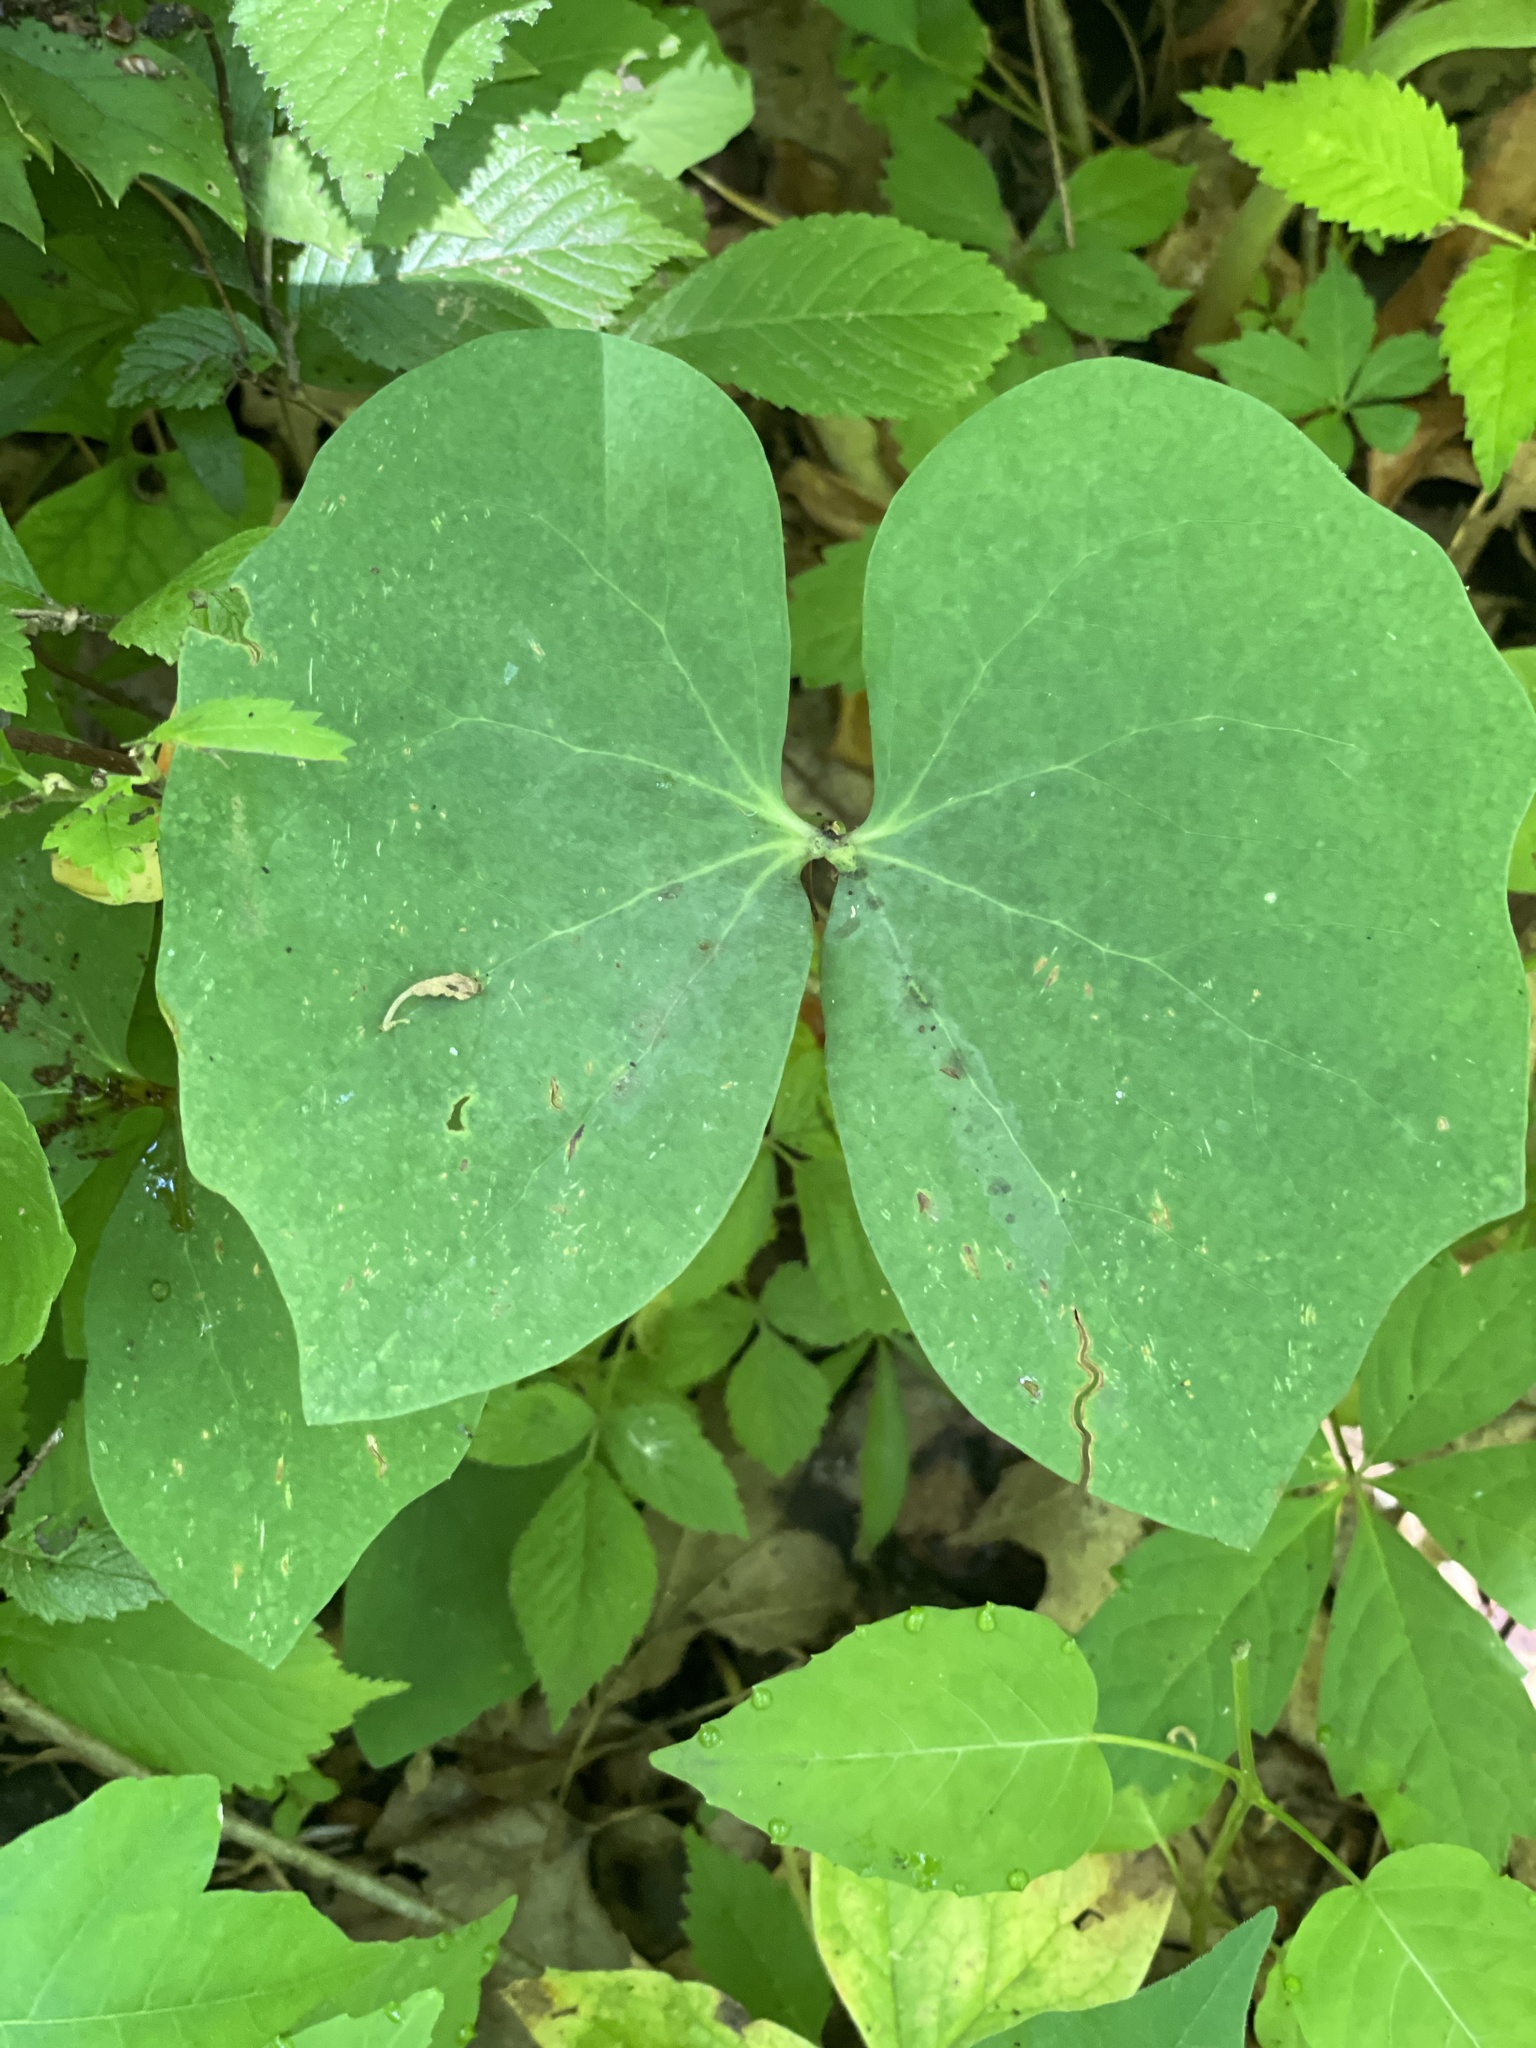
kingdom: Plantae
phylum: Tracheophyta
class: Magnoliopsida
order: Ranunculales
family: Berberidaceae
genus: Jeffersonia
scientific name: Jeffersonia diphylla
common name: Rheumatism-root
